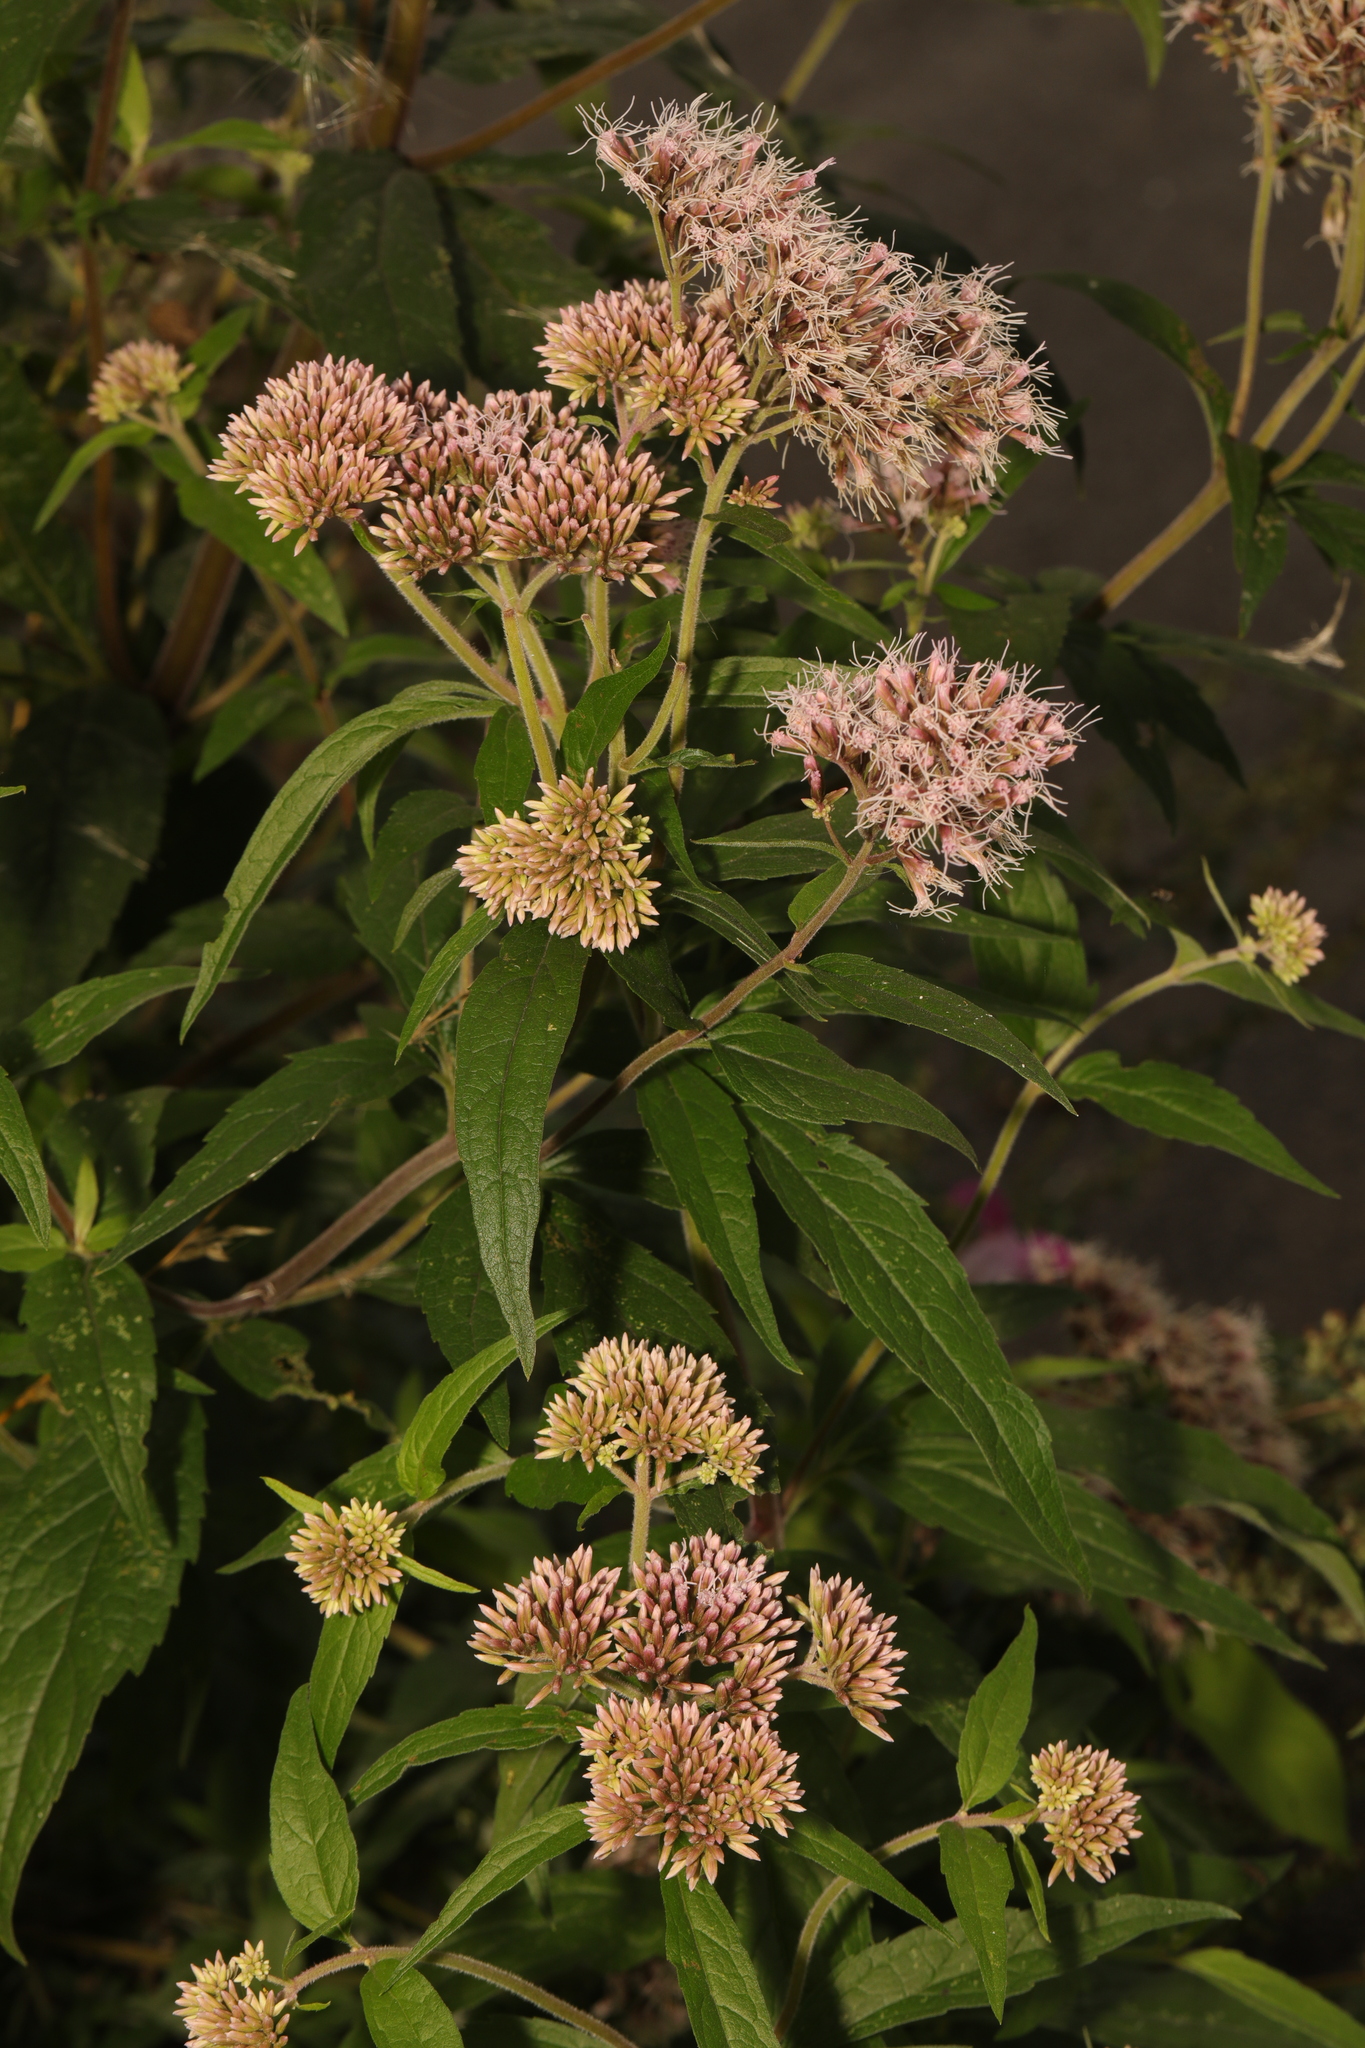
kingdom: Plantae
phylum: Tracheophyta
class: Magnoliopsida
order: Asterales
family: Asteraceae
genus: Eupatorium
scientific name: Eupatorium cannabinum
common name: Hemp-agrimony
